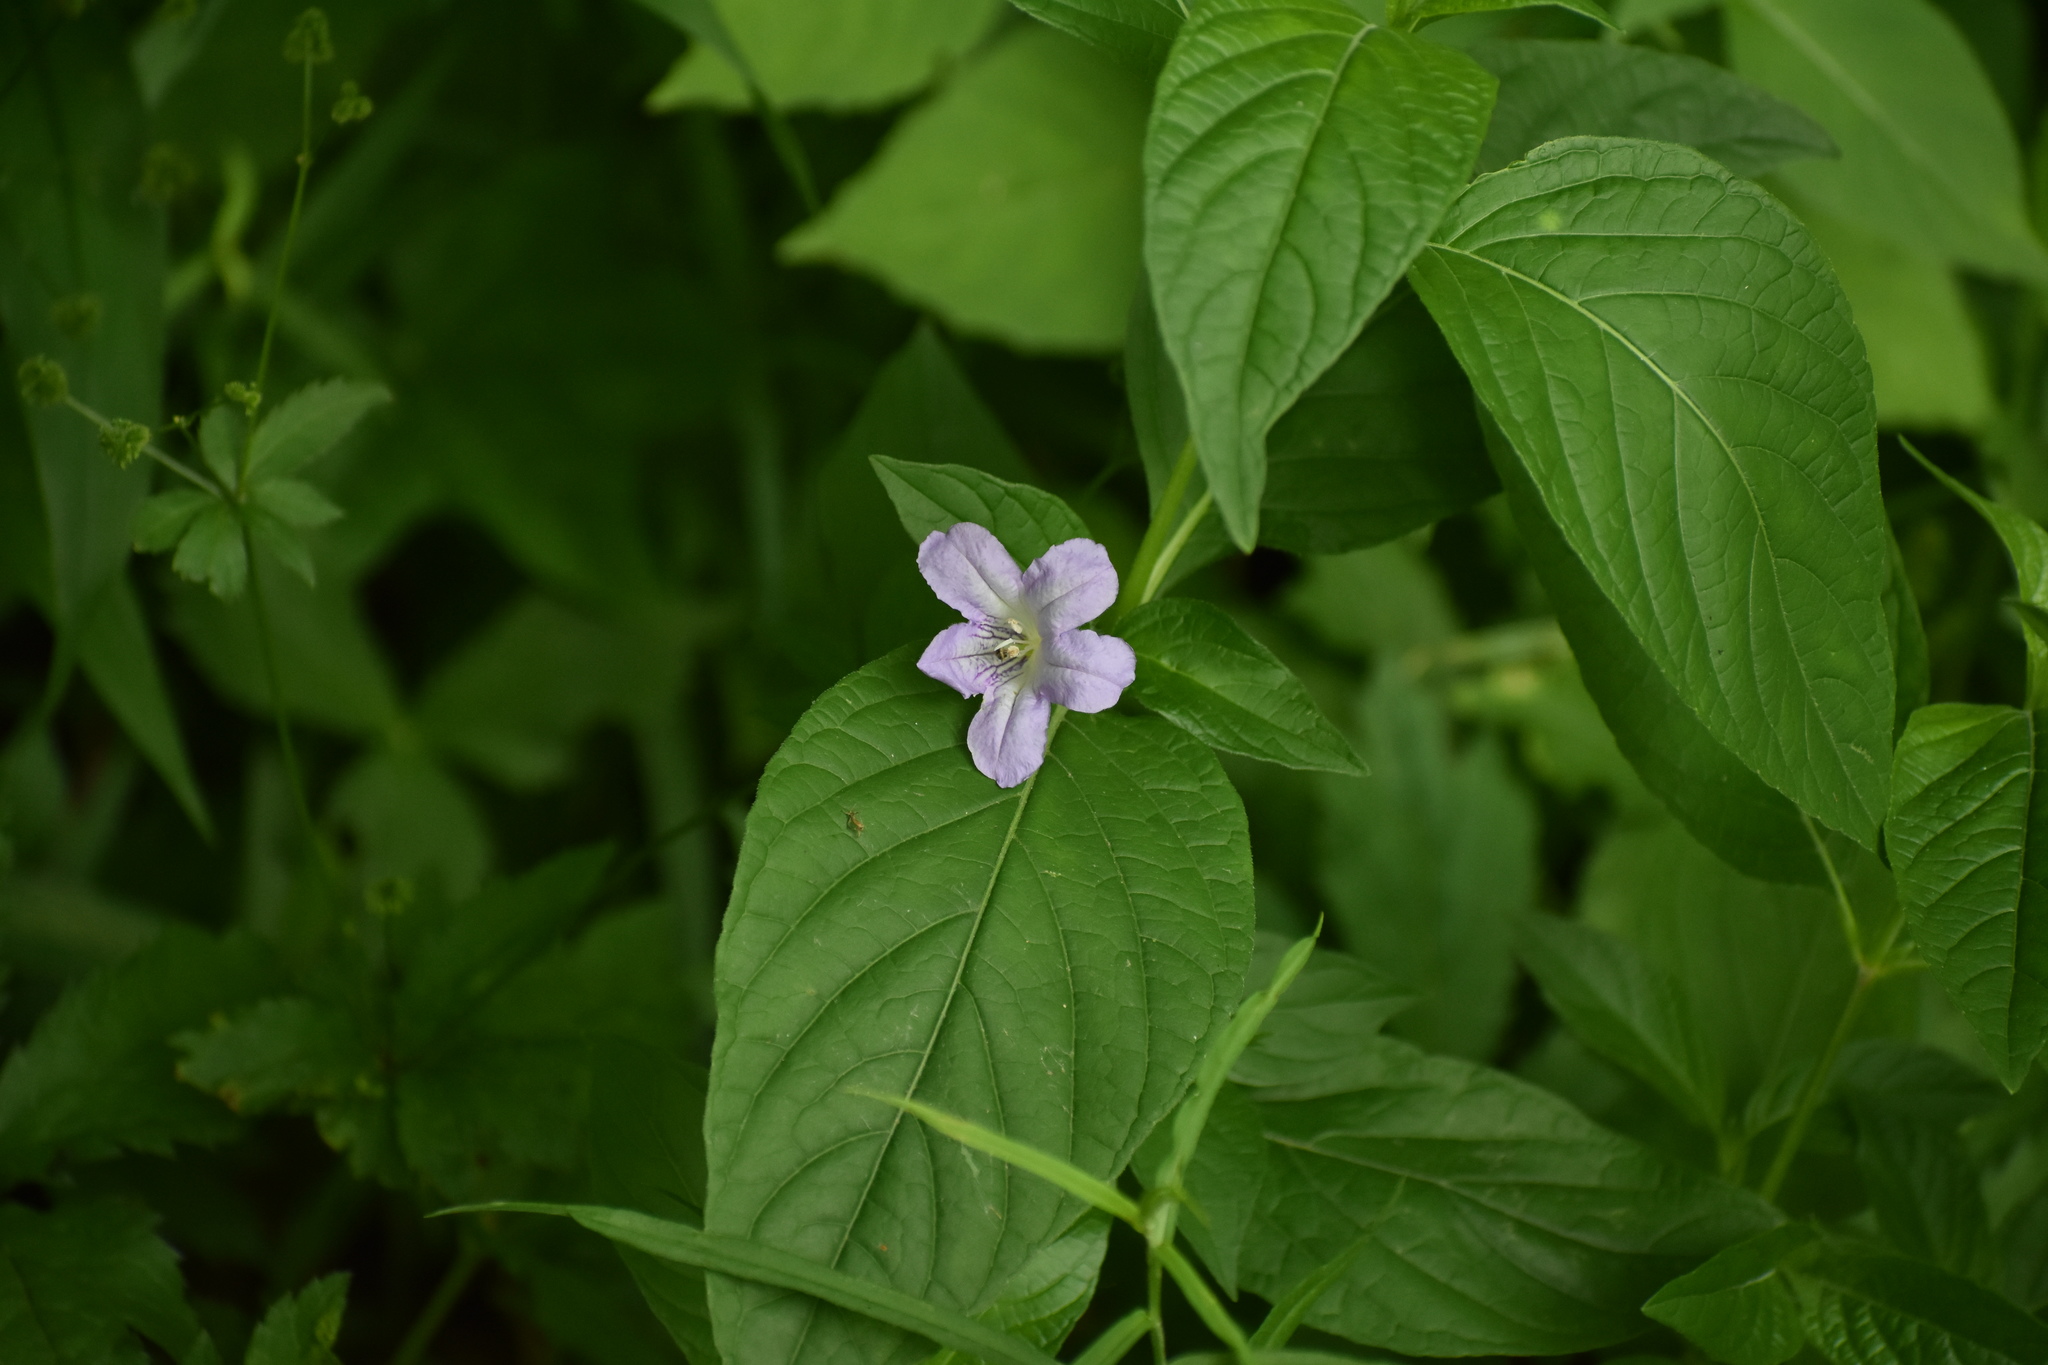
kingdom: Plantae
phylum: Tracheophyta
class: Magnoliopsida
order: Lamiales
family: Acanthaceae
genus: Ruellia
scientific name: Ruellia strepens
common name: Limestone wild petunia
